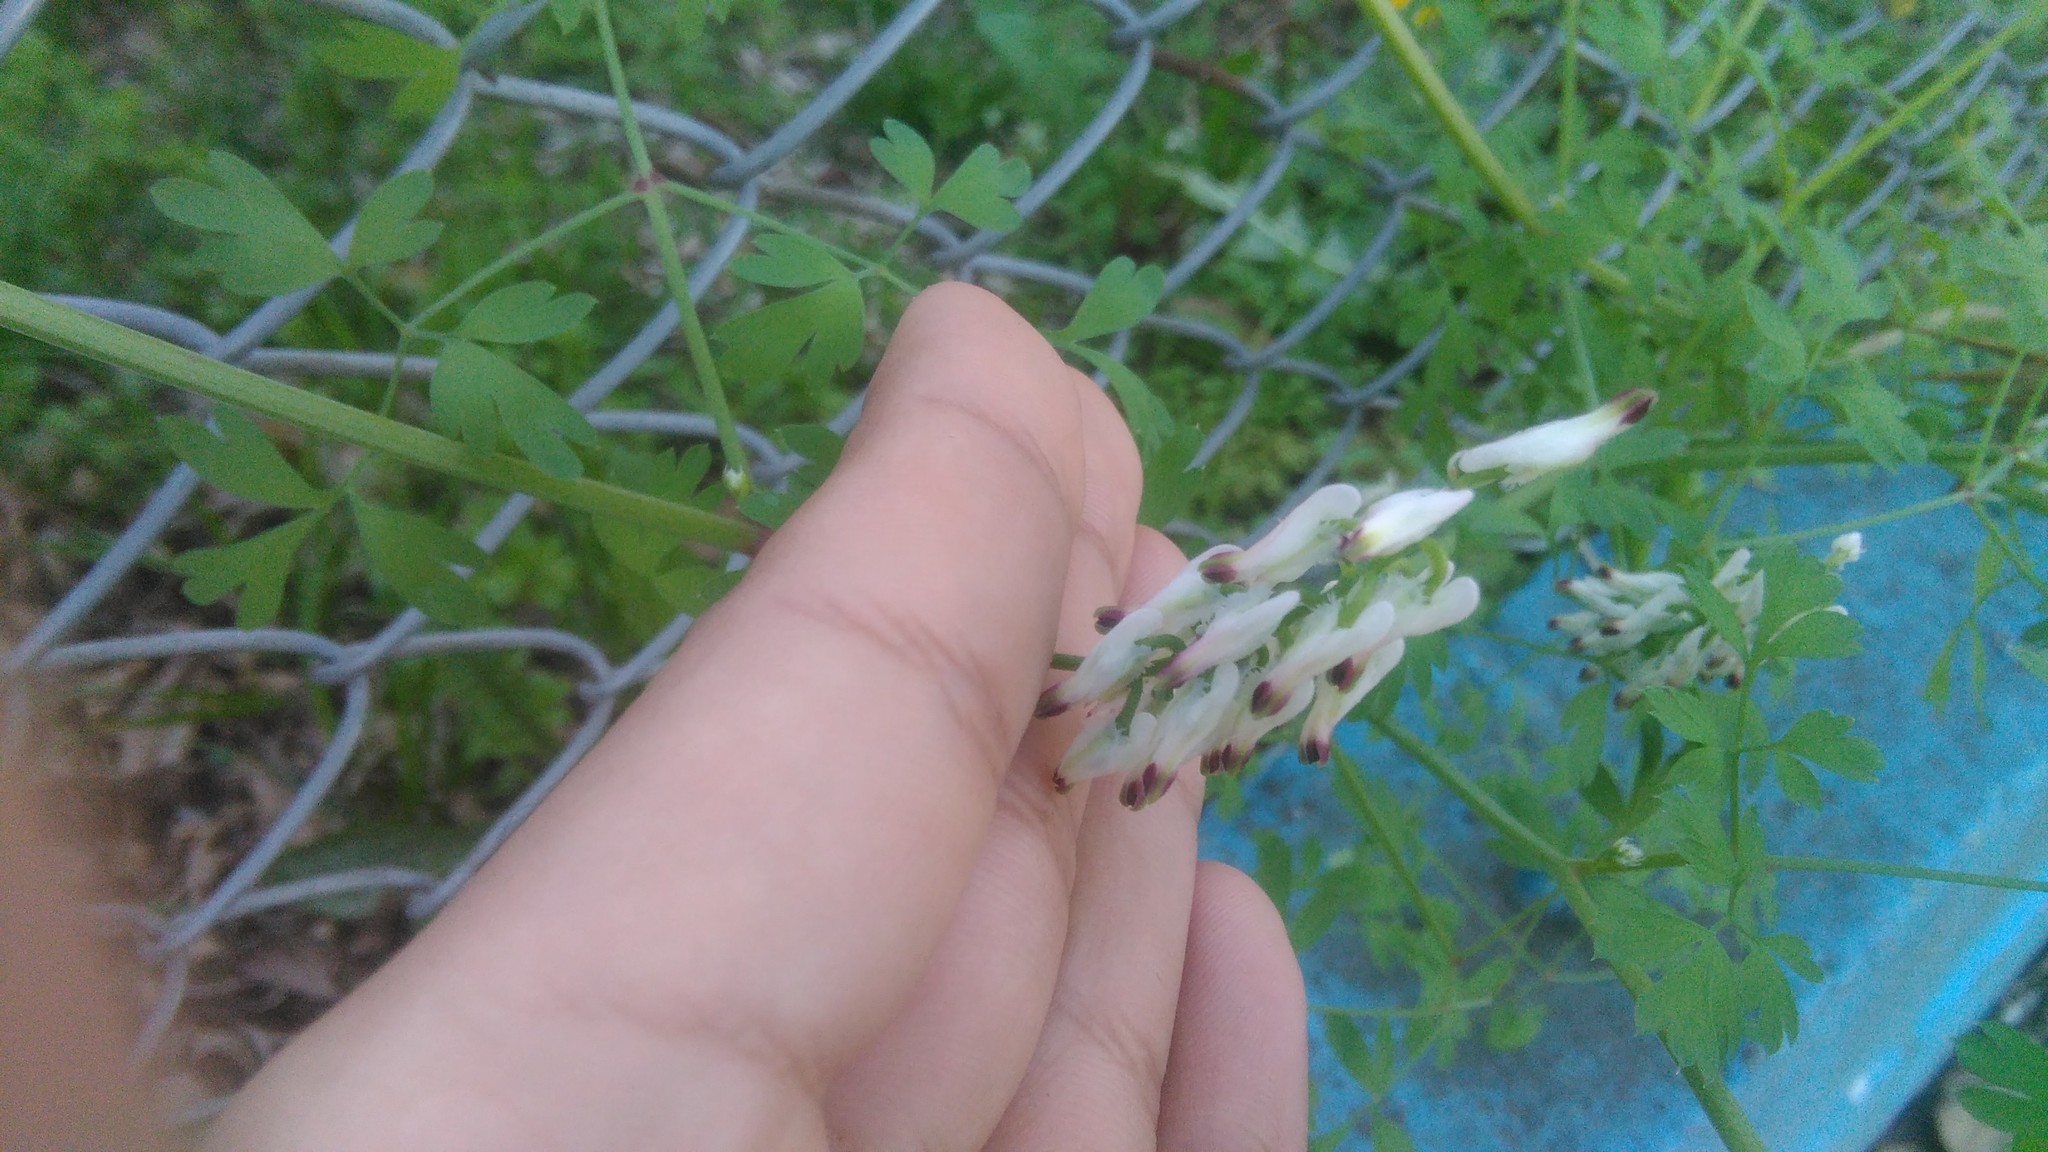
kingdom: Plantae
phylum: Tracheophyta
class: Magnoliopsida
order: Ranunculales
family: Papaveraceae
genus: Fumaria
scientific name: Fumaria capreolata
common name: White ramping-fumitory
